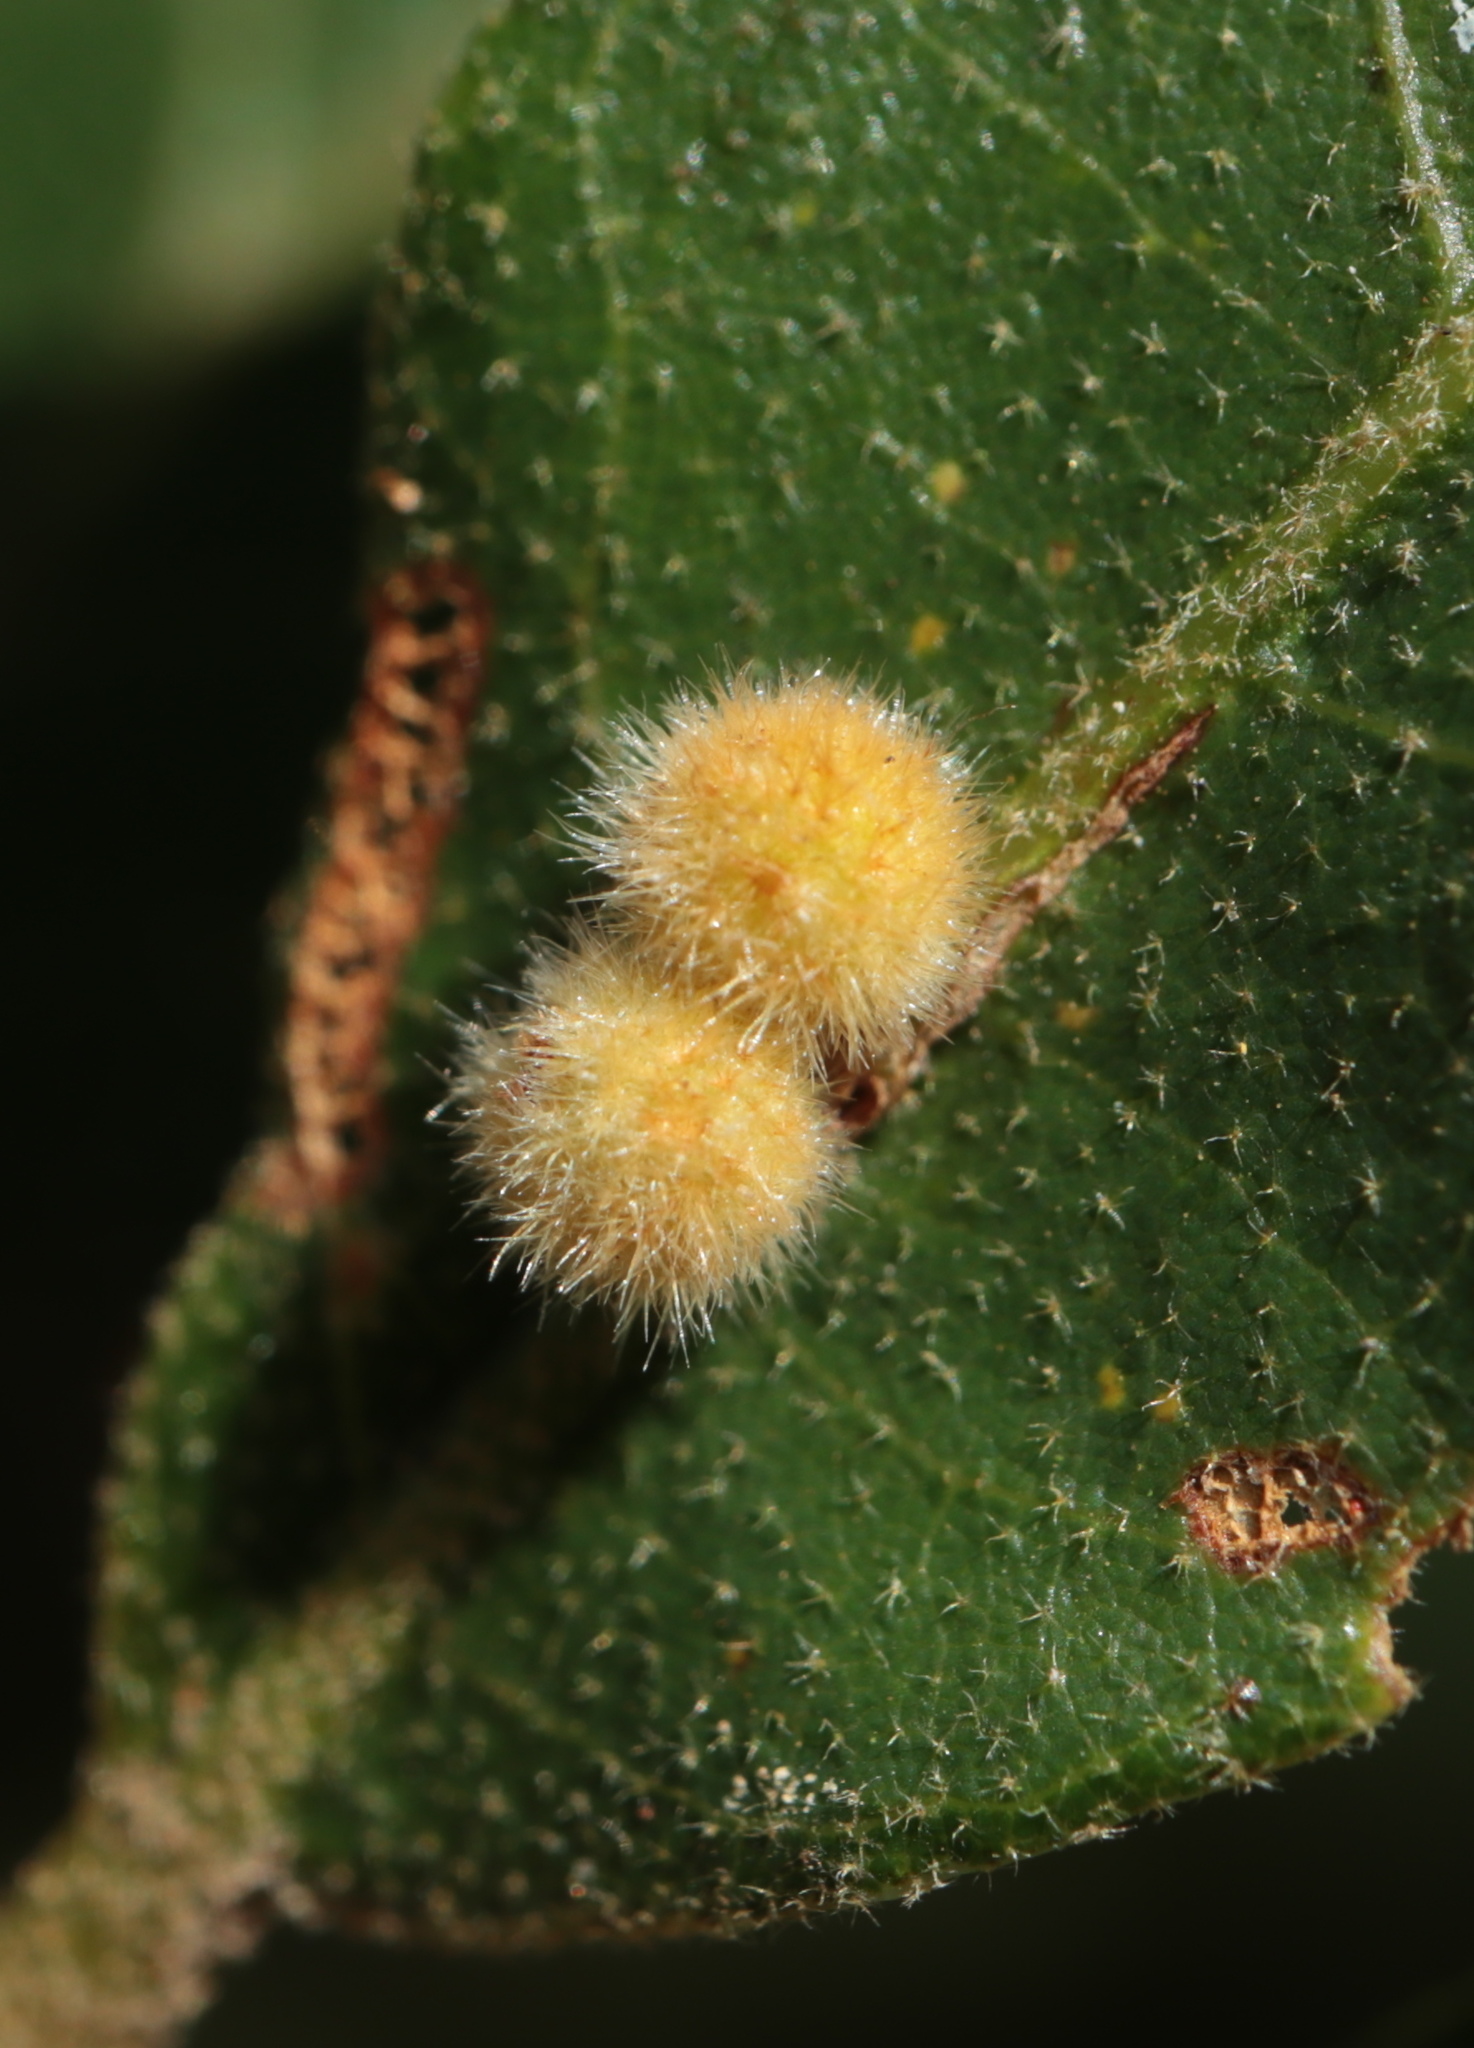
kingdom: Animalia
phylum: Arthropoda
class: Insecta
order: Hymenoptera
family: Cynipidae
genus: Biorhiza
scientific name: Biorhiza Sphaeroteras carolina
